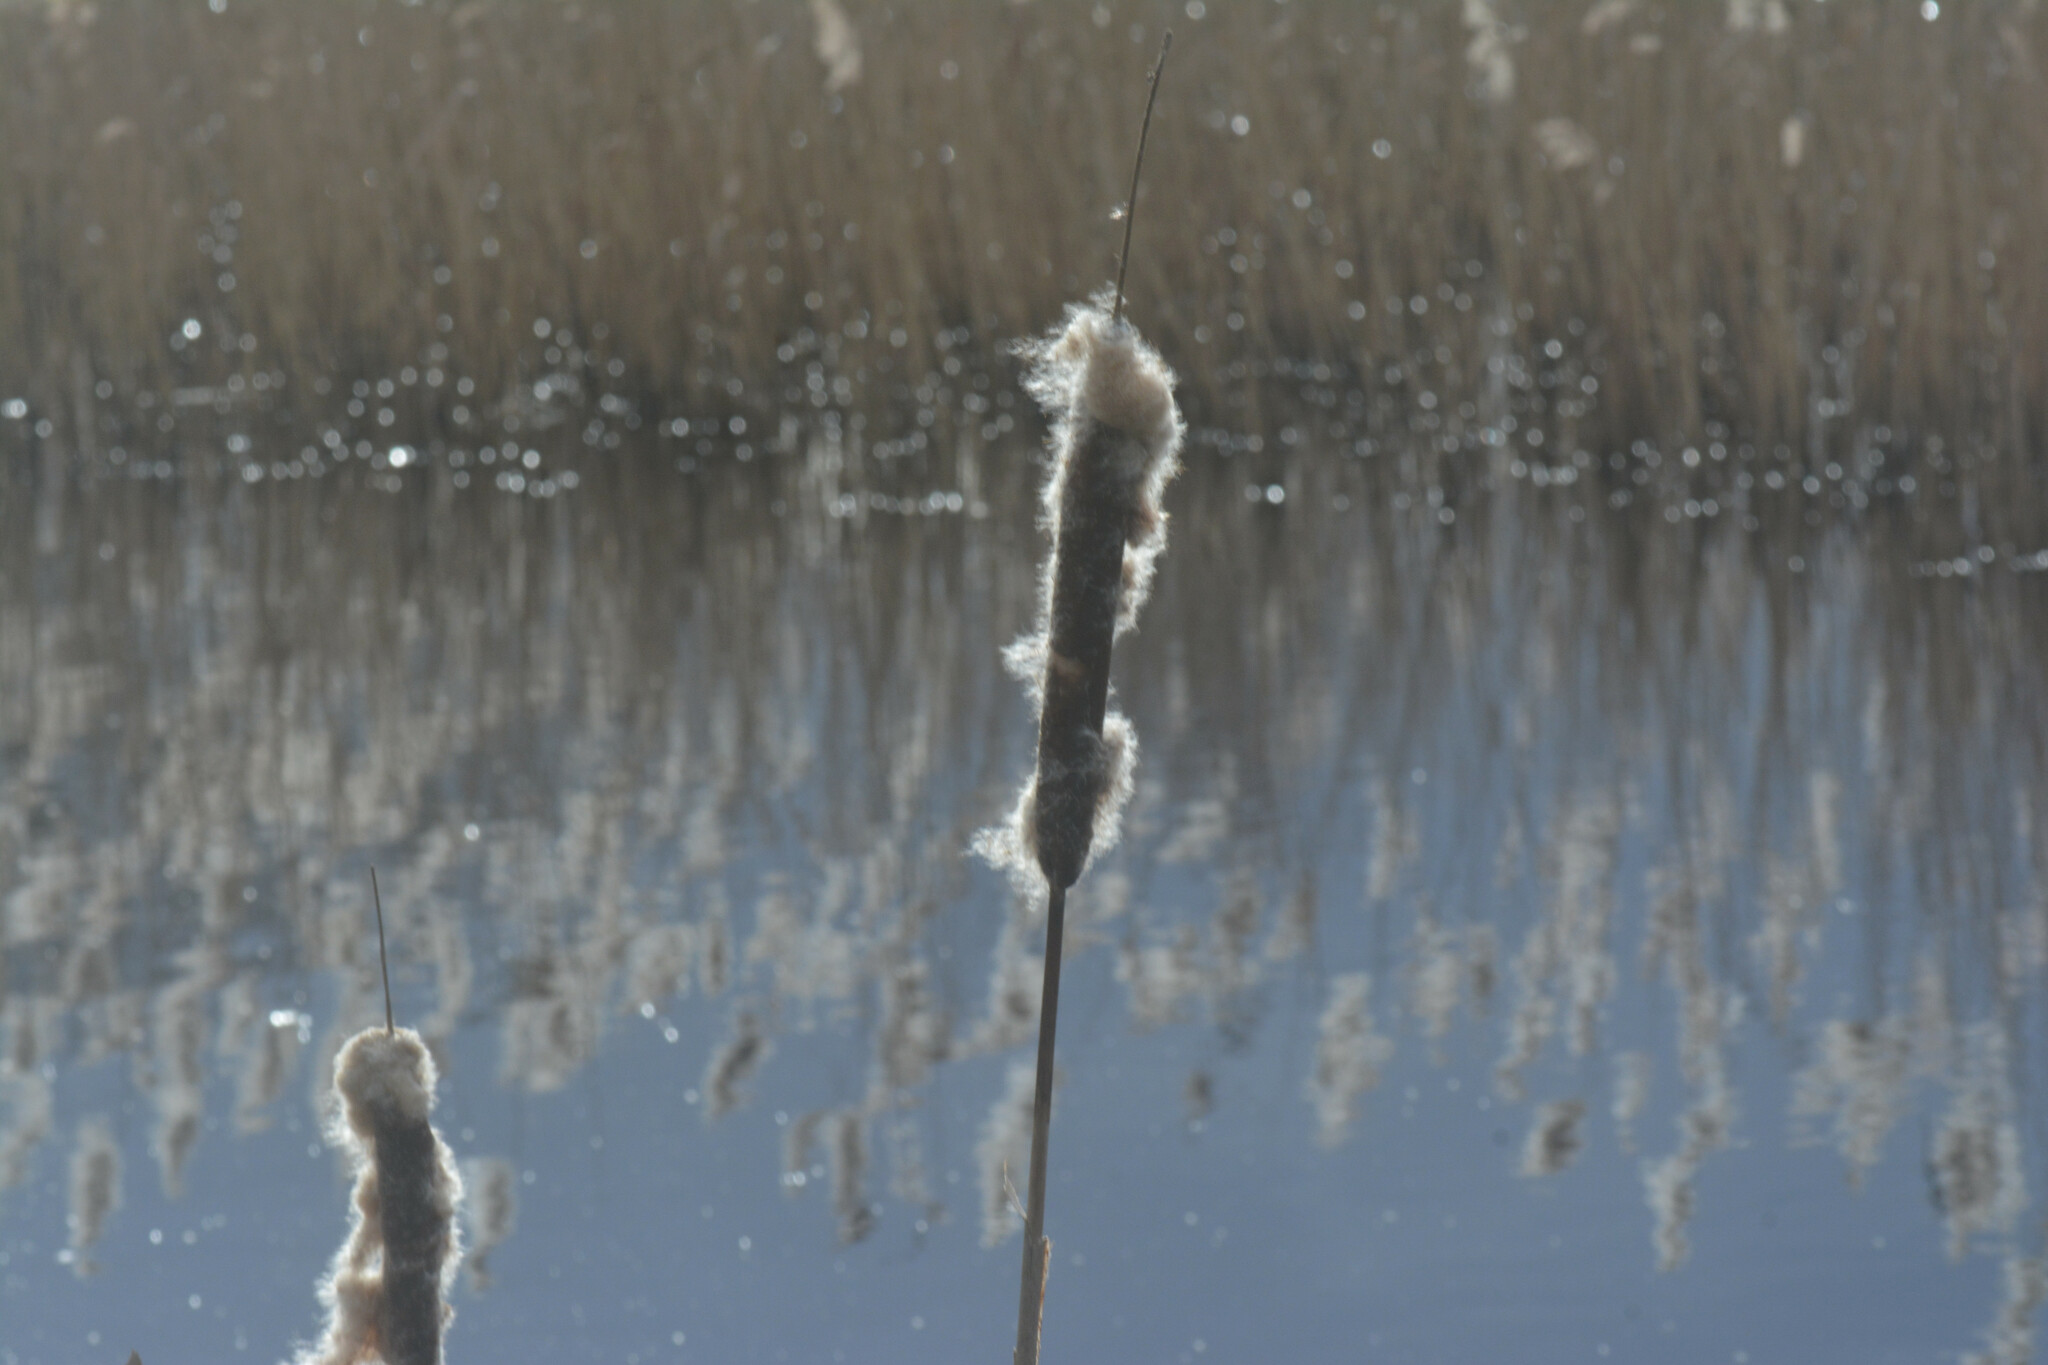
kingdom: Plantae
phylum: Tracheophyta
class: Liliopsida
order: Poales
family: Typhaceae
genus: Typha
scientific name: Typha latifolia
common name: Broadleaf cattail
